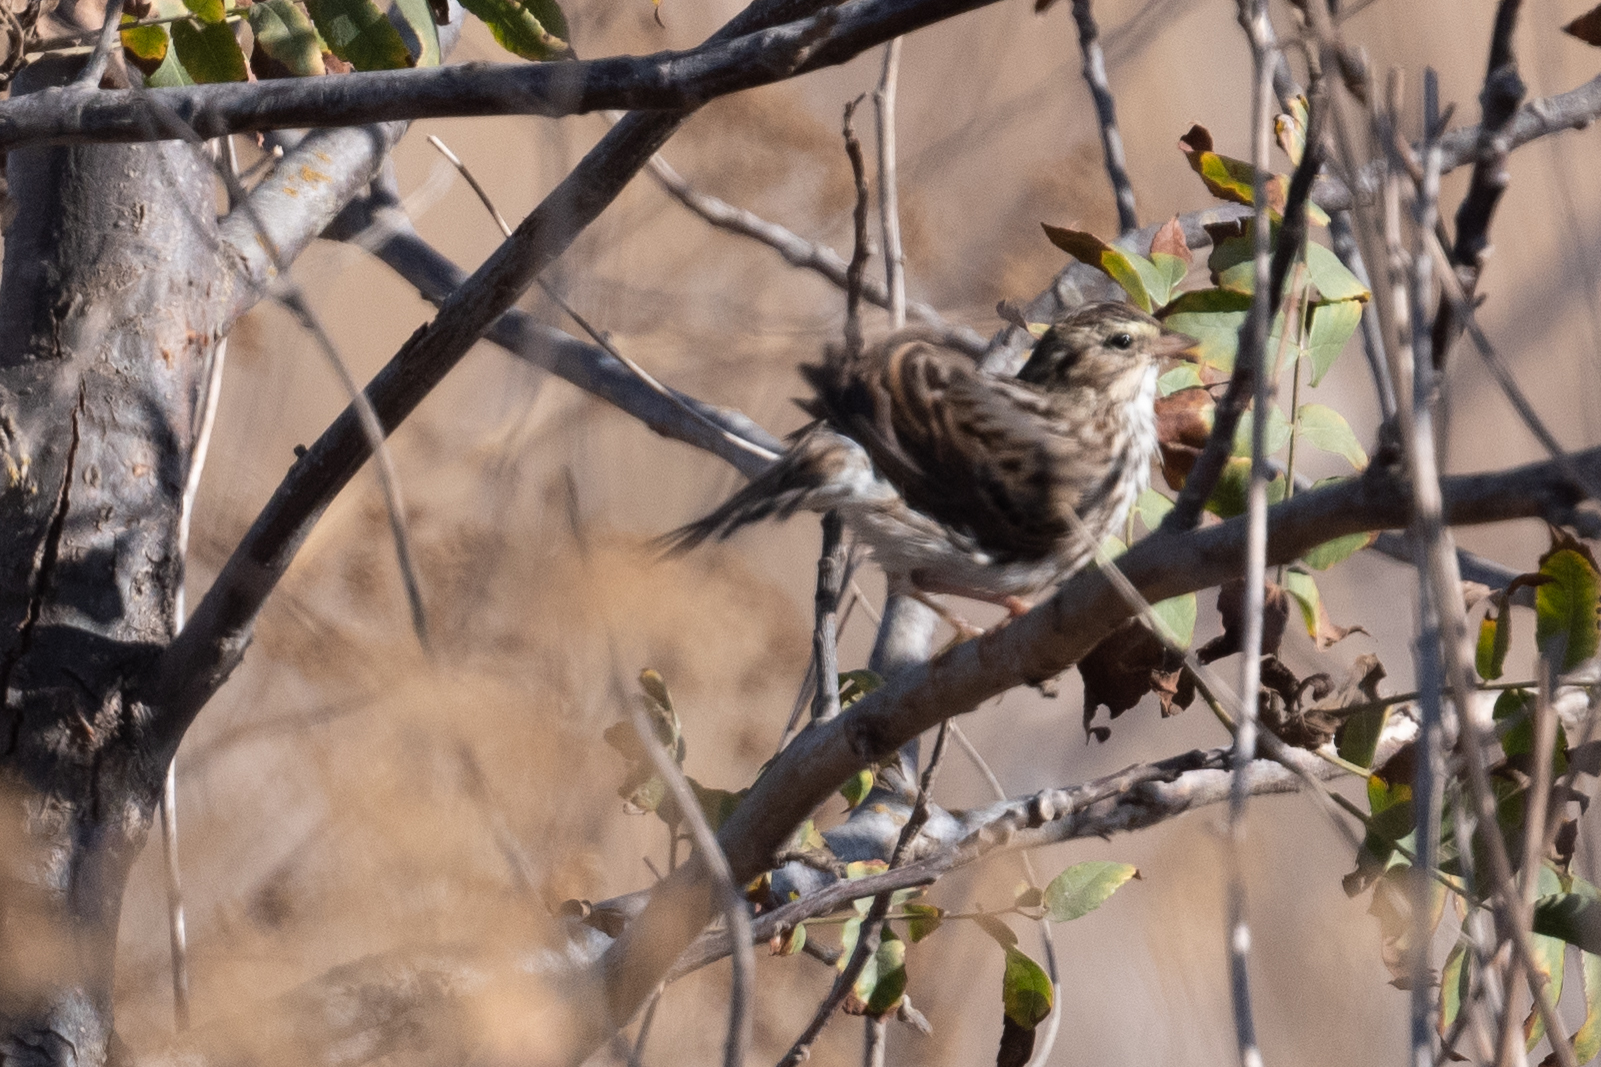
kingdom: Animalia
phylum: Chordata
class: Aves
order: Passeriformes
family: Passerellidae
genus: Passerculus
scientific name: Passerculus sandwichensis
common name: Savannah sparrow
